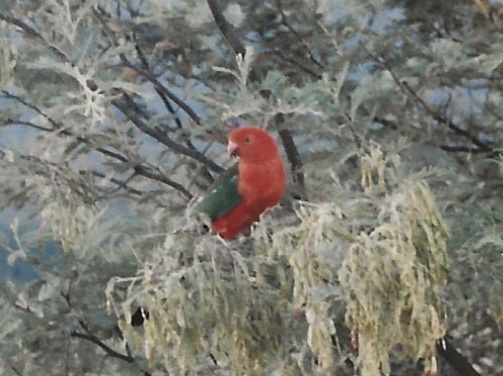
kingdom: Animalia
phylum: Chordata
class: Aves
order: Psittaciformes
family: Psittacidae
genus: Alisterus
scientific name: Alisterus scapularis
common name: Australian king parrot
